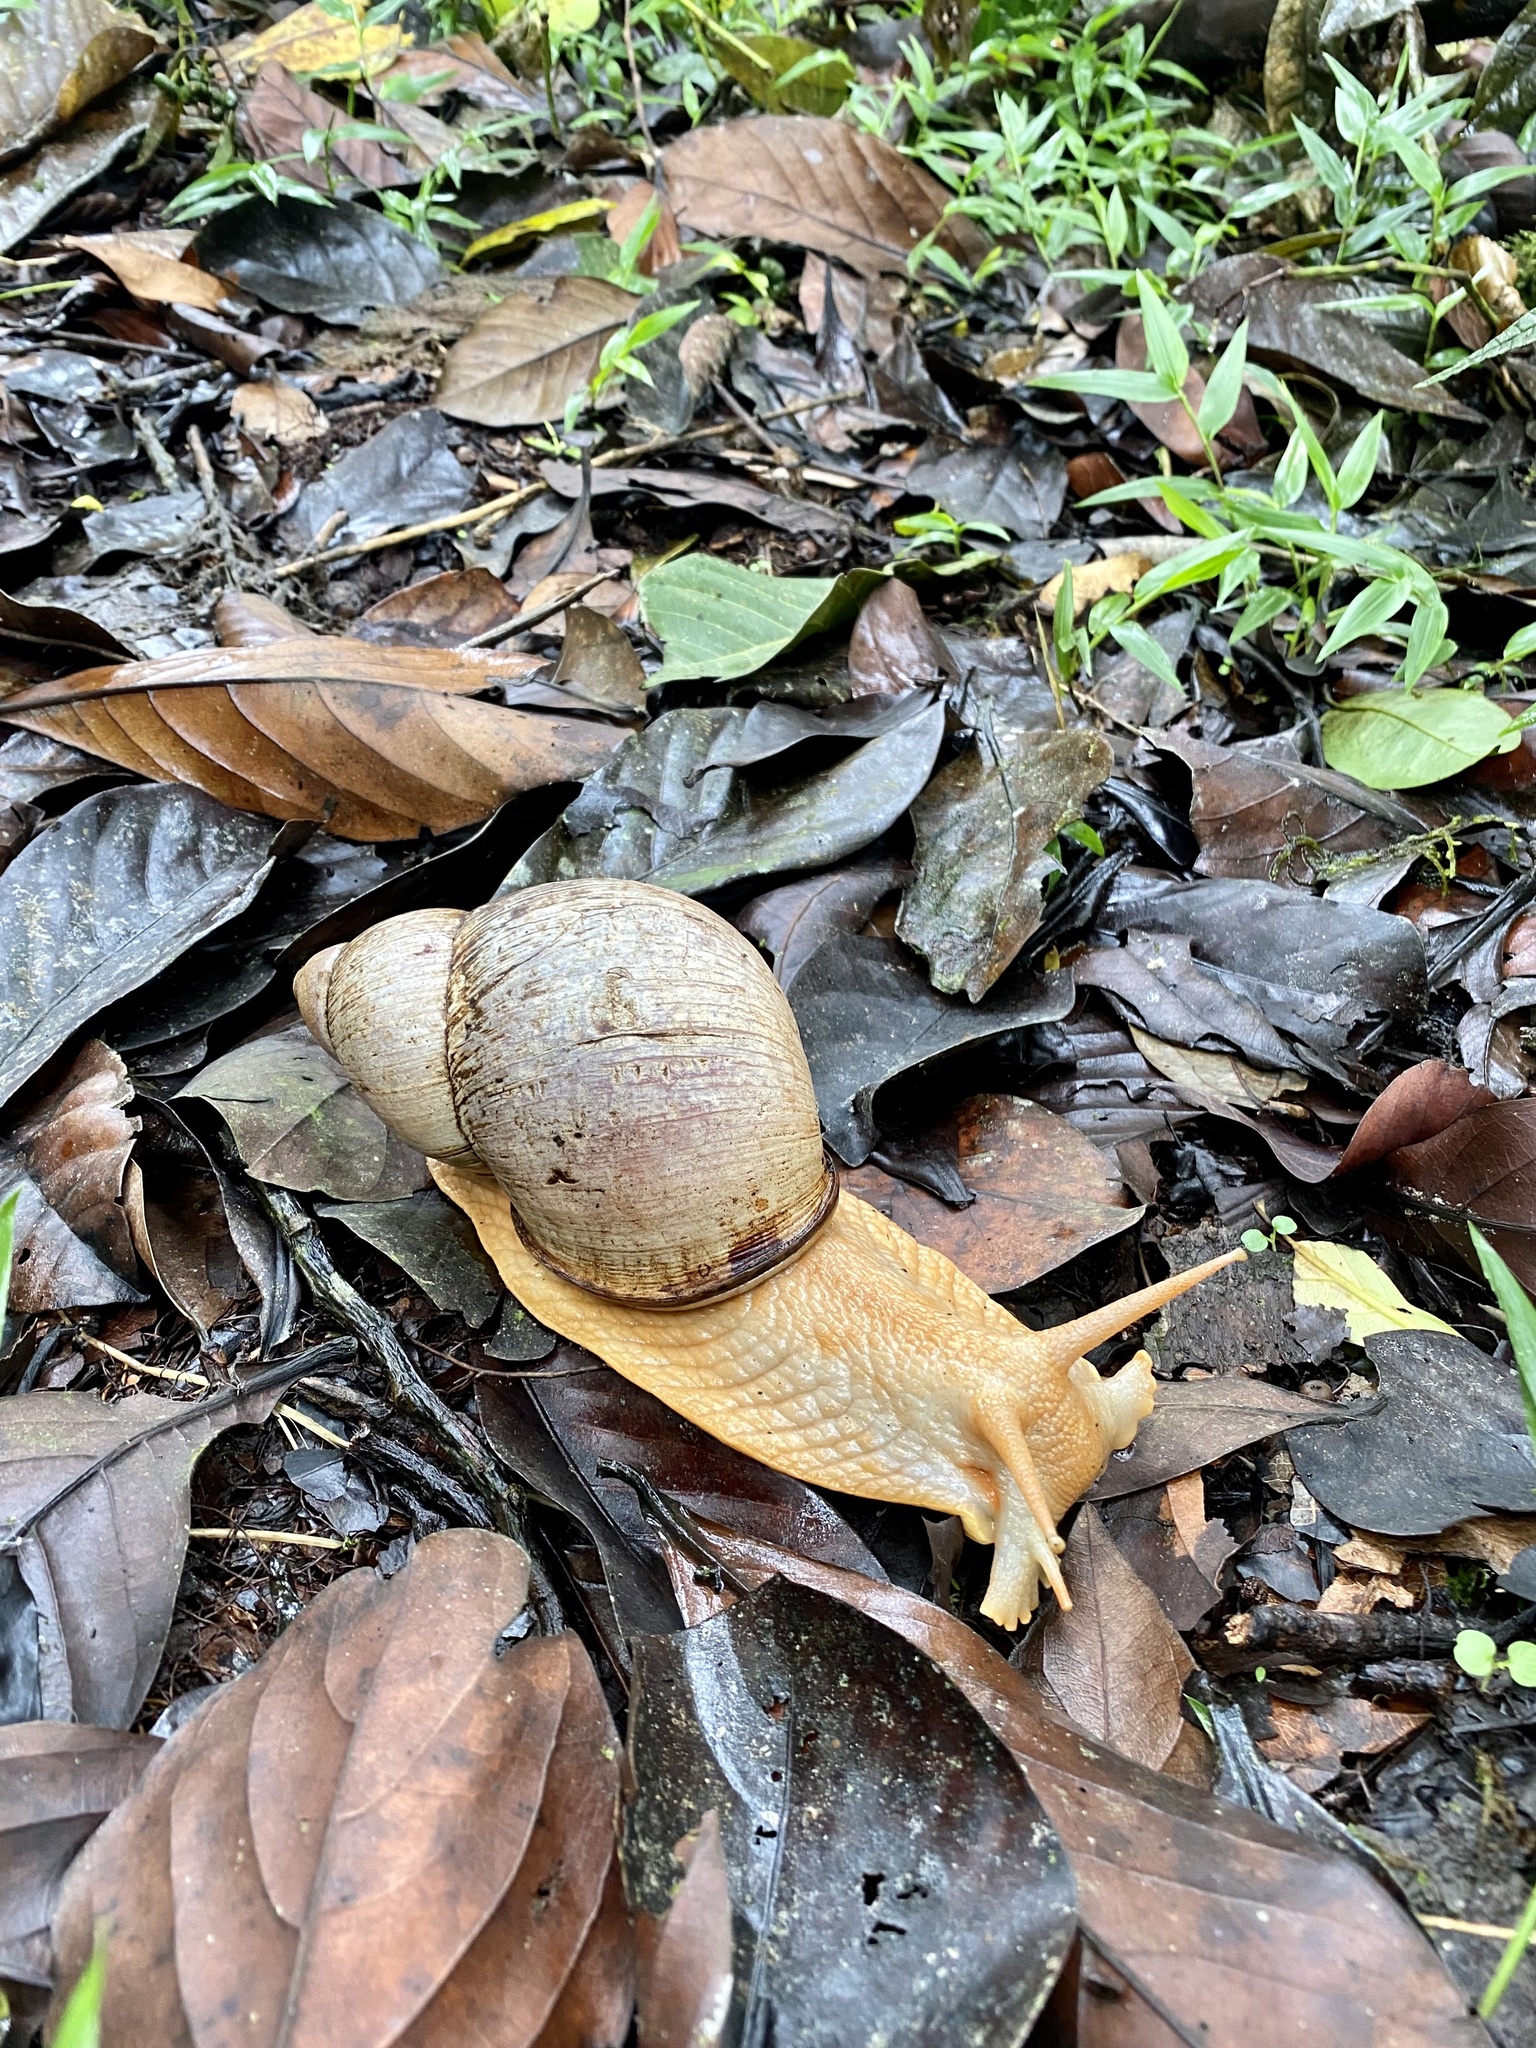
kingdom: Animalia
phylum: Mollusca
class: Gastropoda
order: Stylommatophora
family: Strophocheilidae
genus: Megalobulimus
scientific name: Megalobulimus
